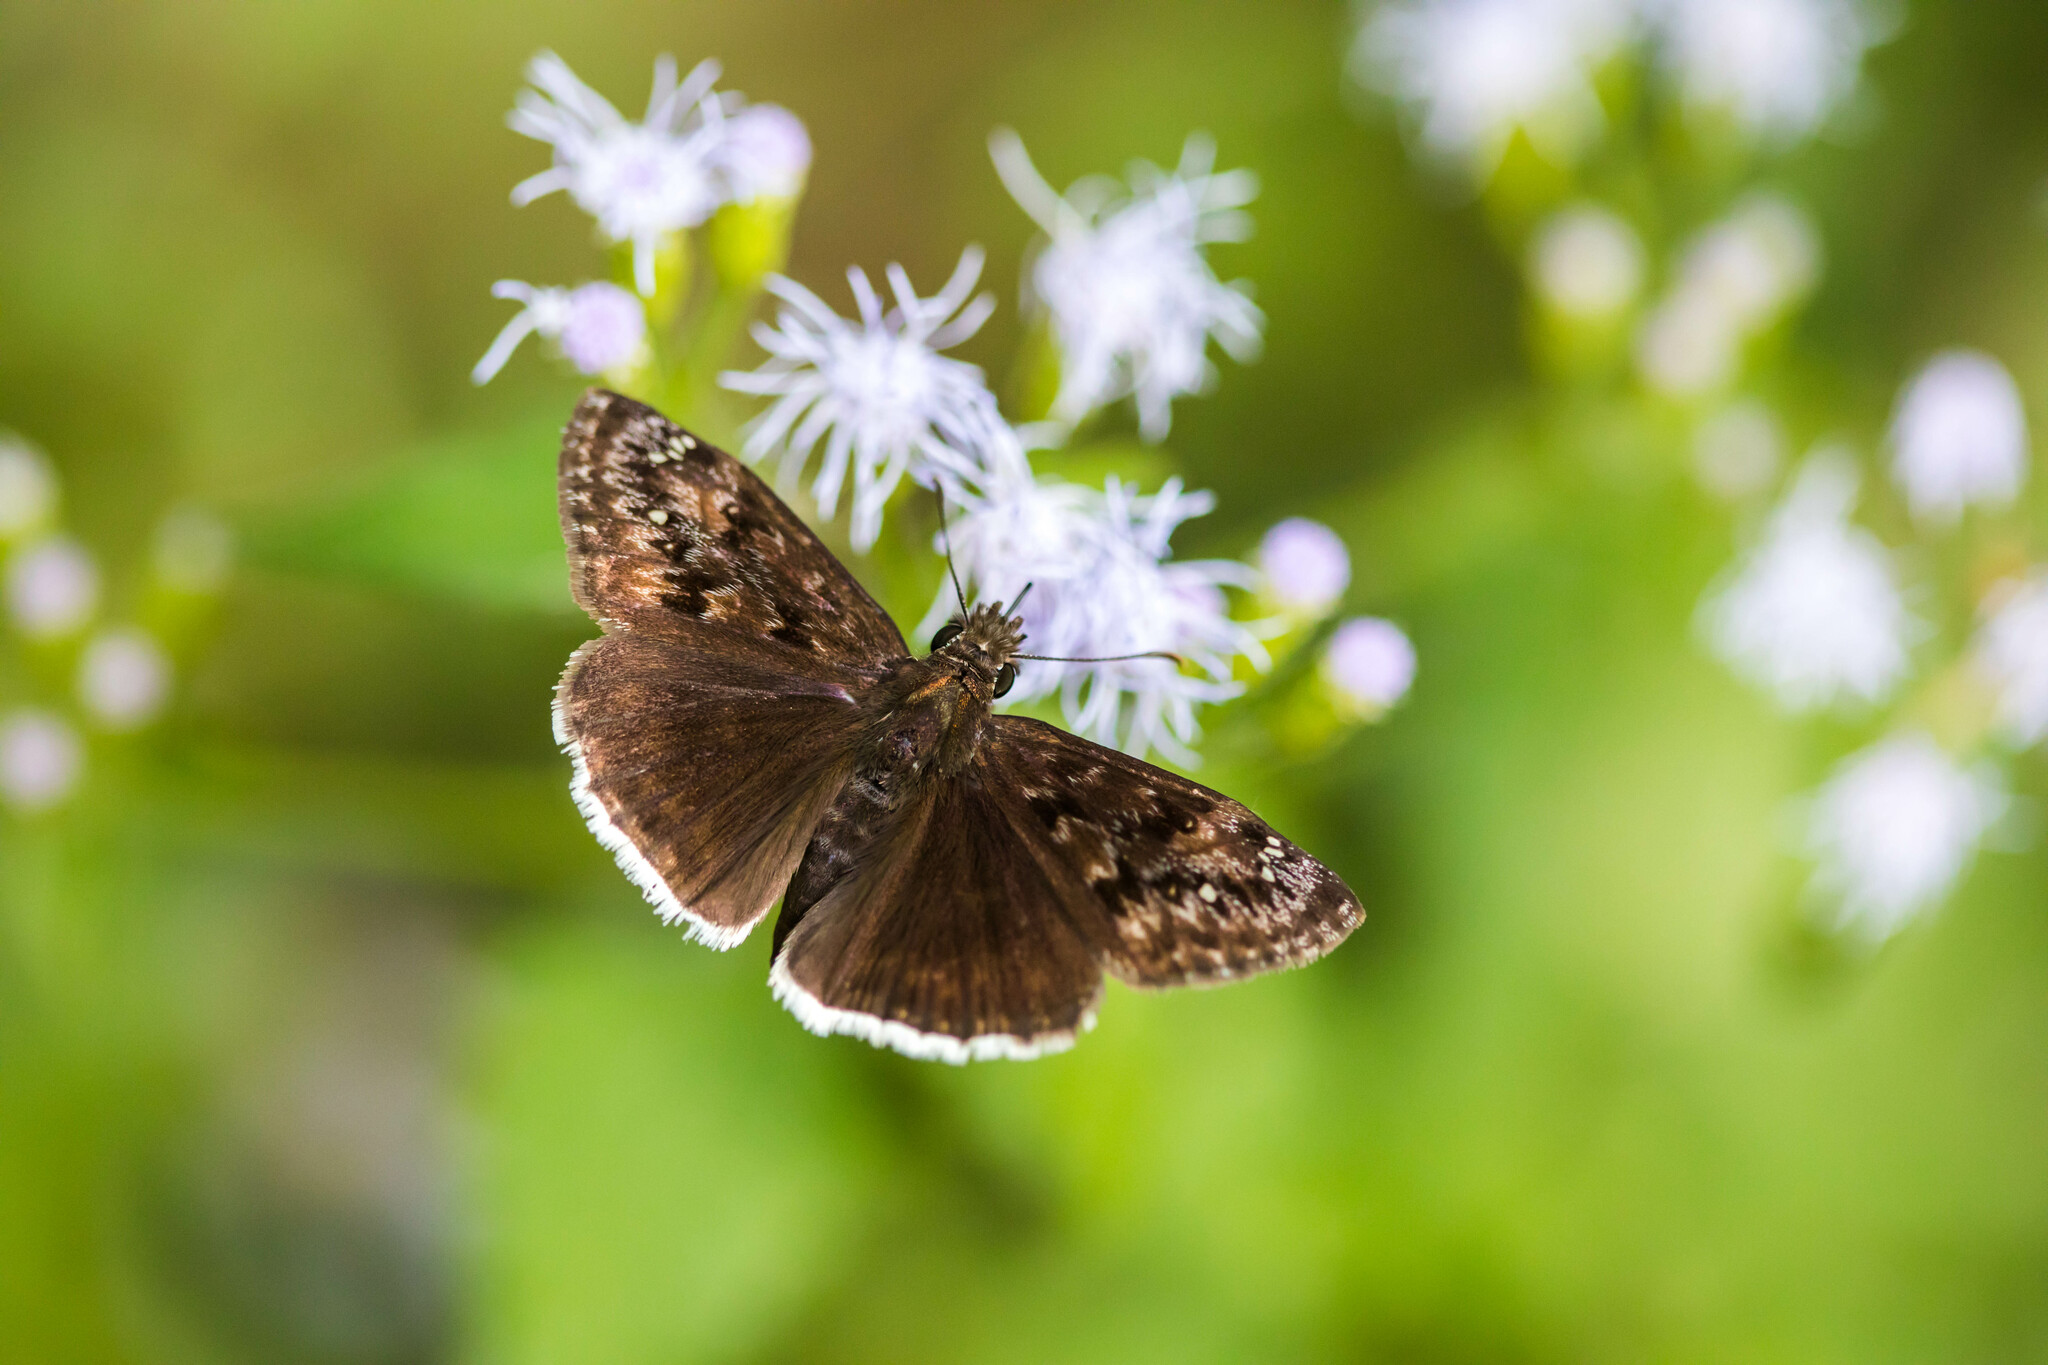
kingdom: Animalia
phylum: Arthropoda
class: Insecta
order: Lepidoptera
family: Hesperiidae
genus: Erynnis
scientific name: Erynnis tristis
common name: Mournful duskywing
